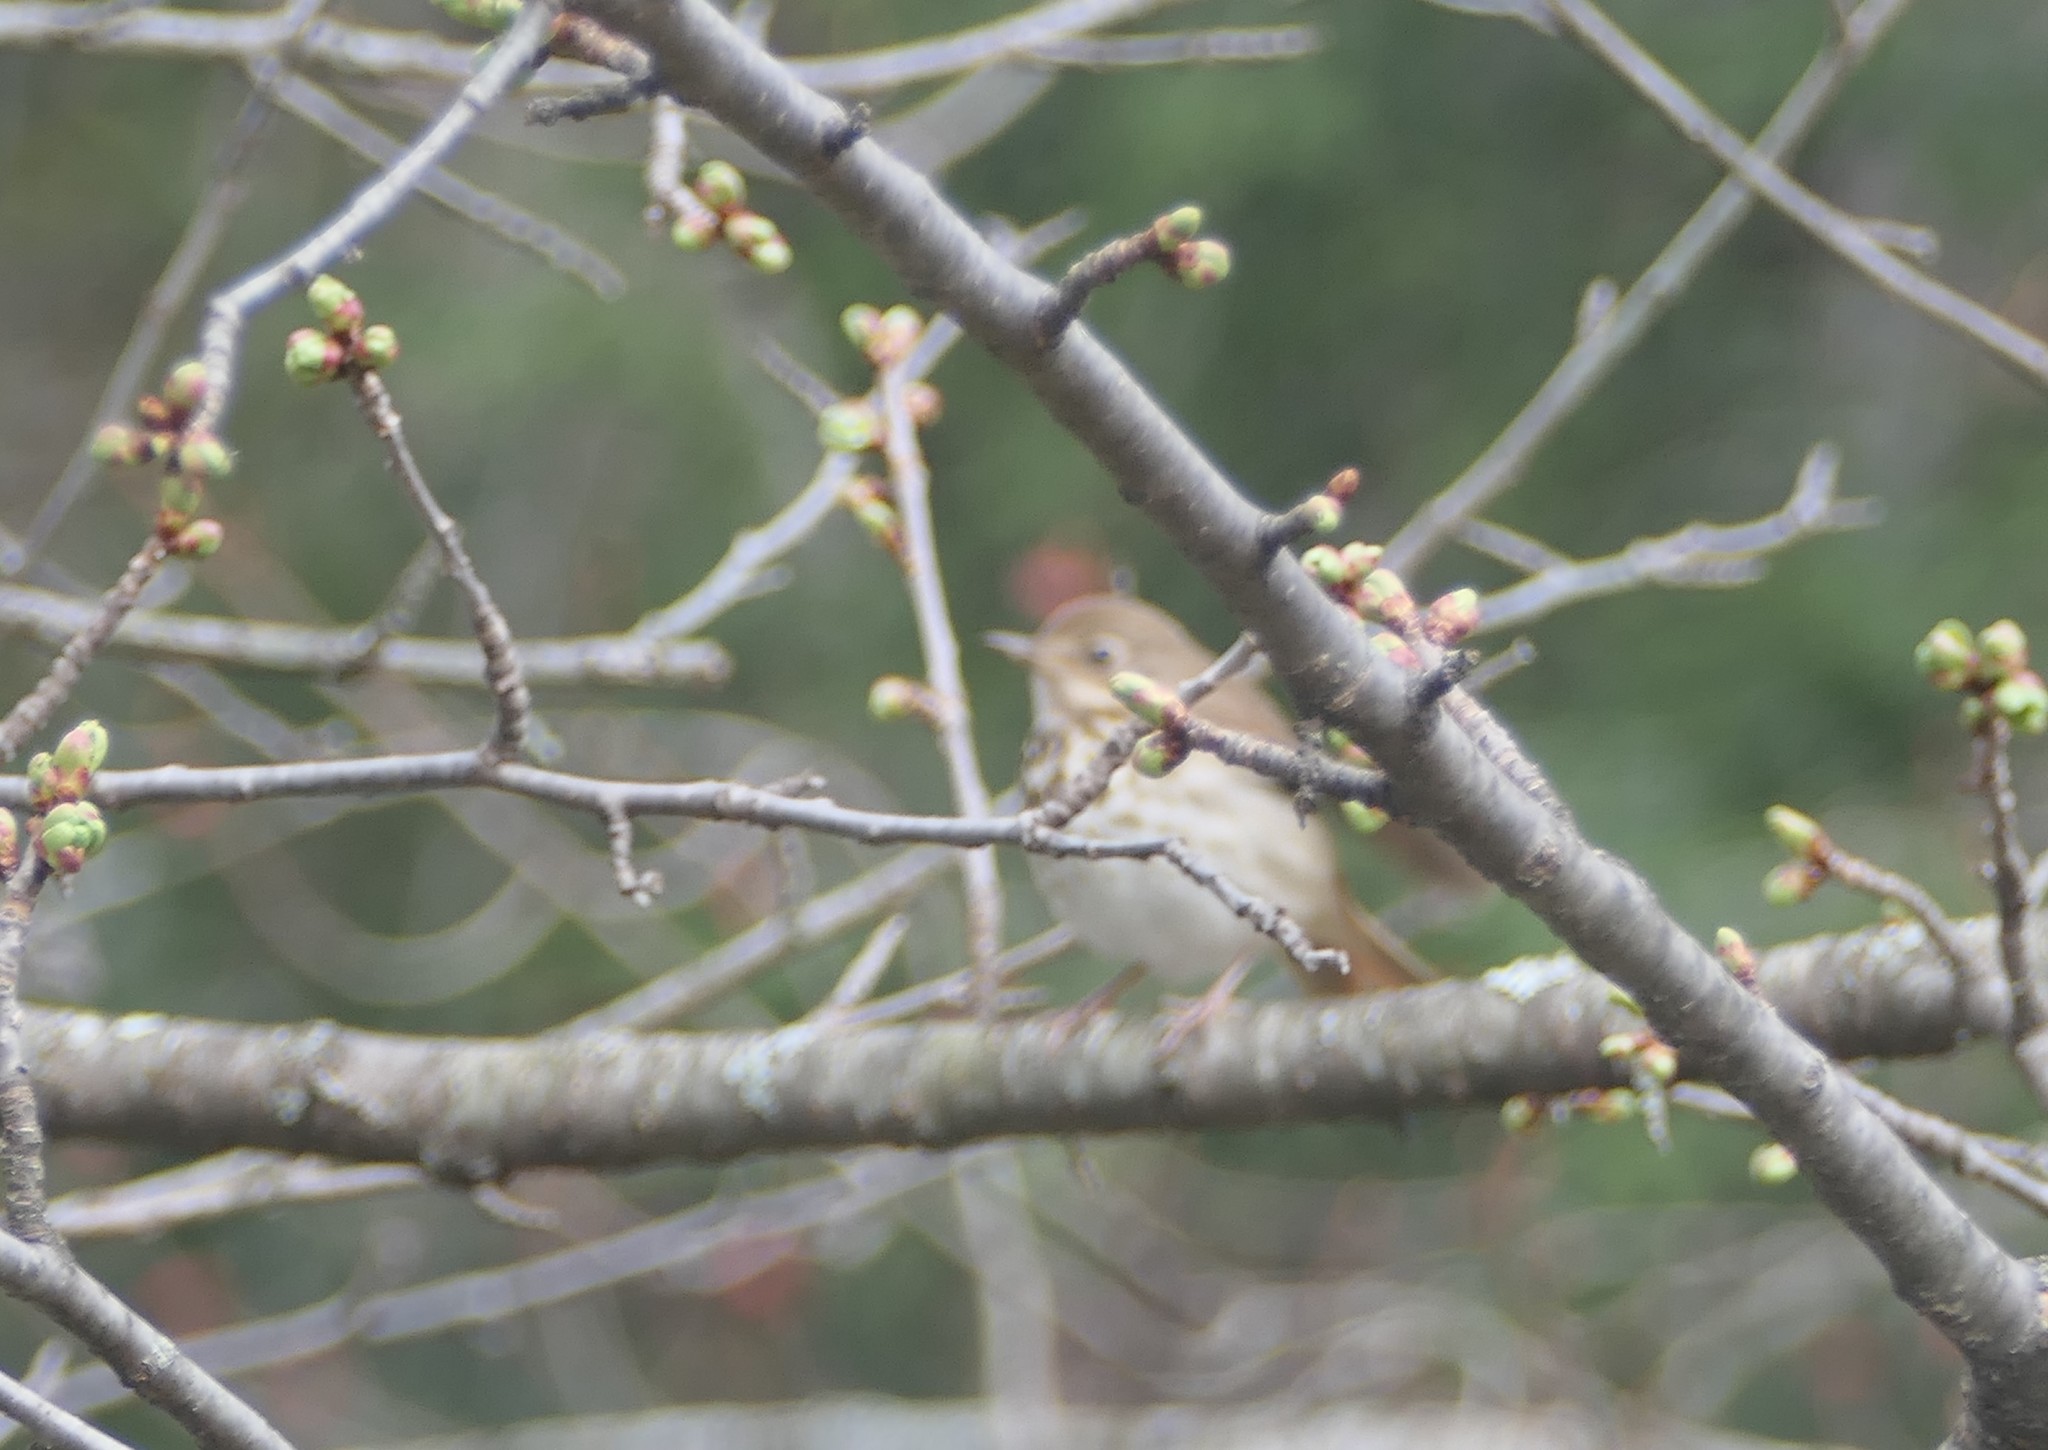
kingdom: Animalia
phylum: Chordata
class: Aves
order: Passeriformes
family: Turdidae
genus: Catharus
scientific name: Catharus guttatus
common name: Hermit thrush
